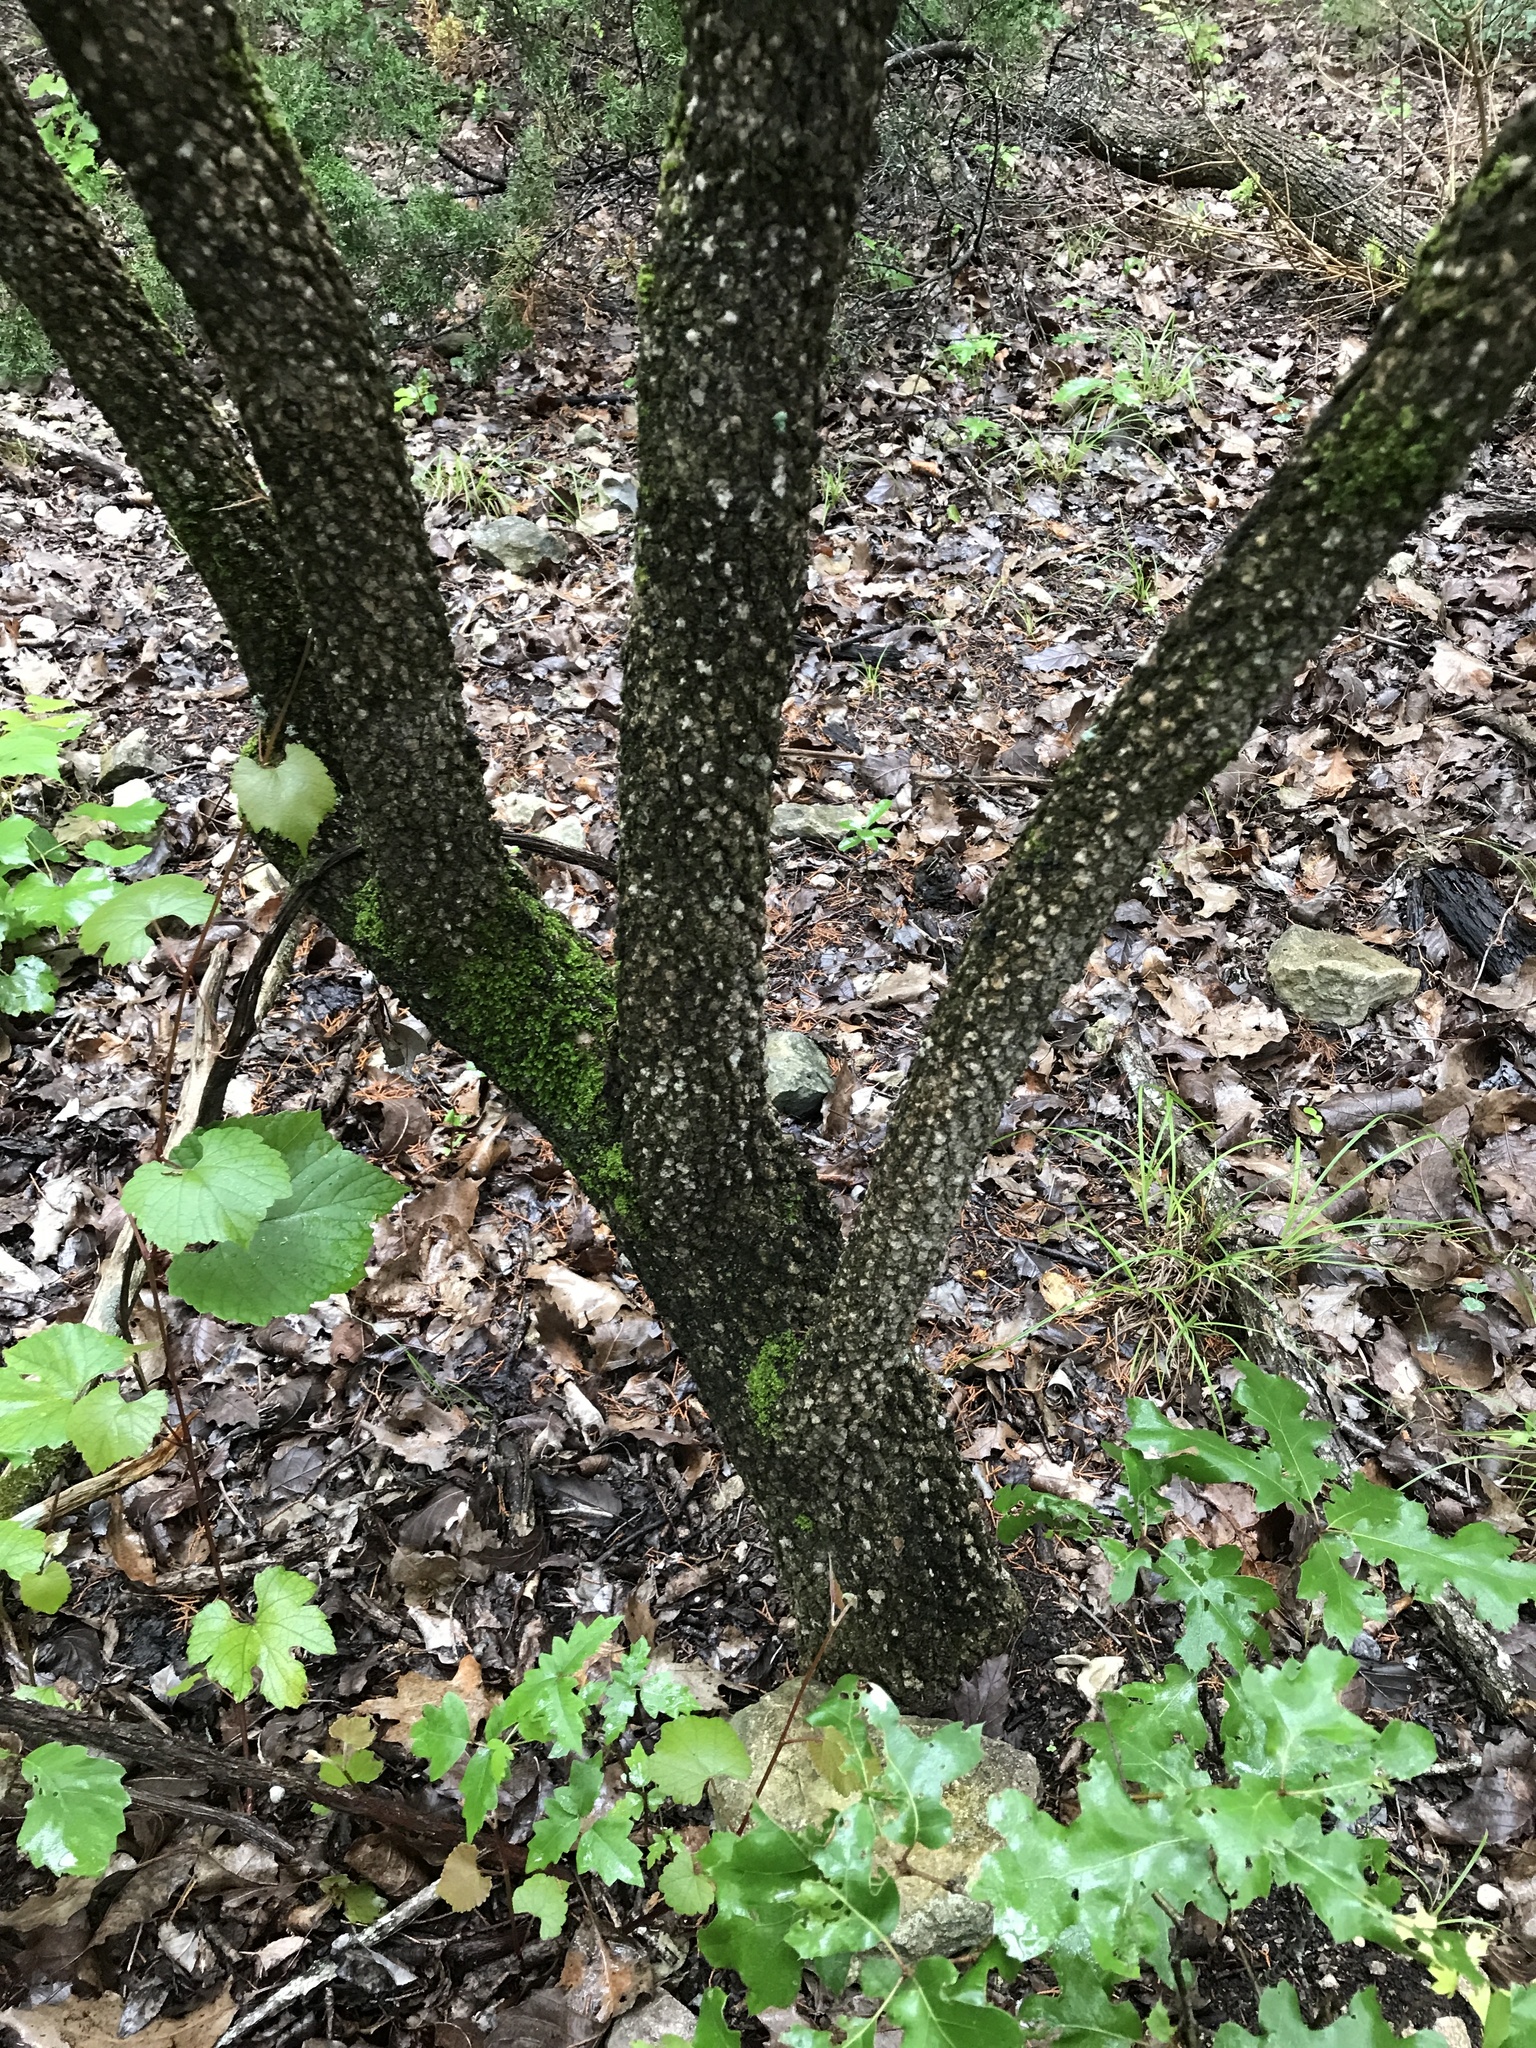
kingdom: Plantae
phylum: Tracheophyta
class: Magnoliopsida
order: Dipsacales
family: Viburnaceae
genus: Viburnum
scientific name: Viburnum rufidulum
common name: Blue haw
